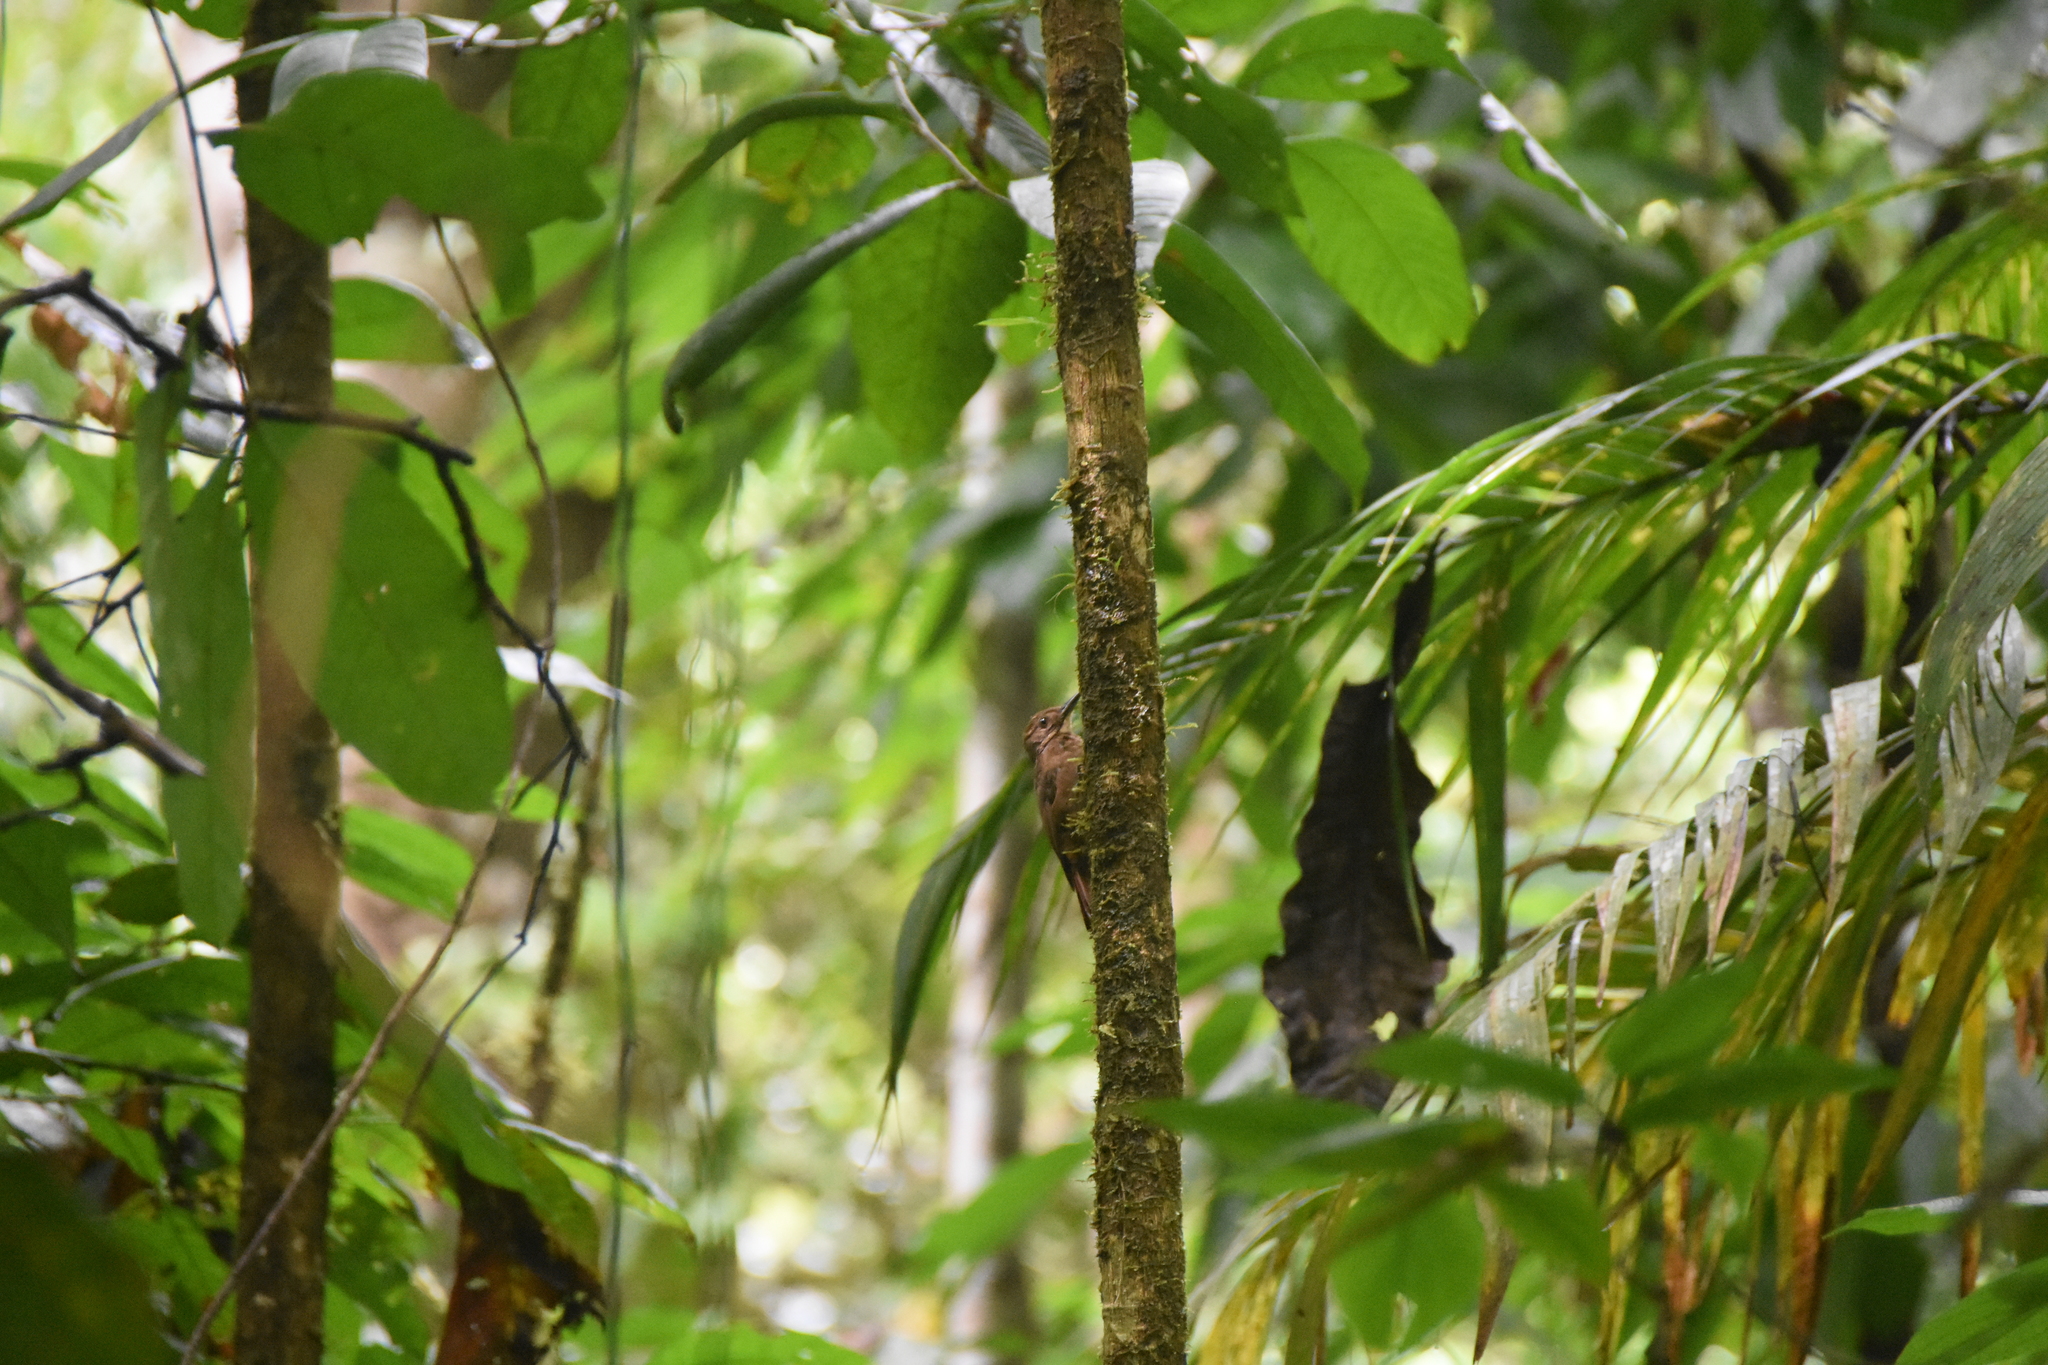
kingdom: Animalia
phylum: Chordata
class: Aves
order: Passeriformes
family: Furnariidae
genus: Dendrocincla
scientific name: Dendrocincla anabatina
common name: Tawny-winged woodcreeper
